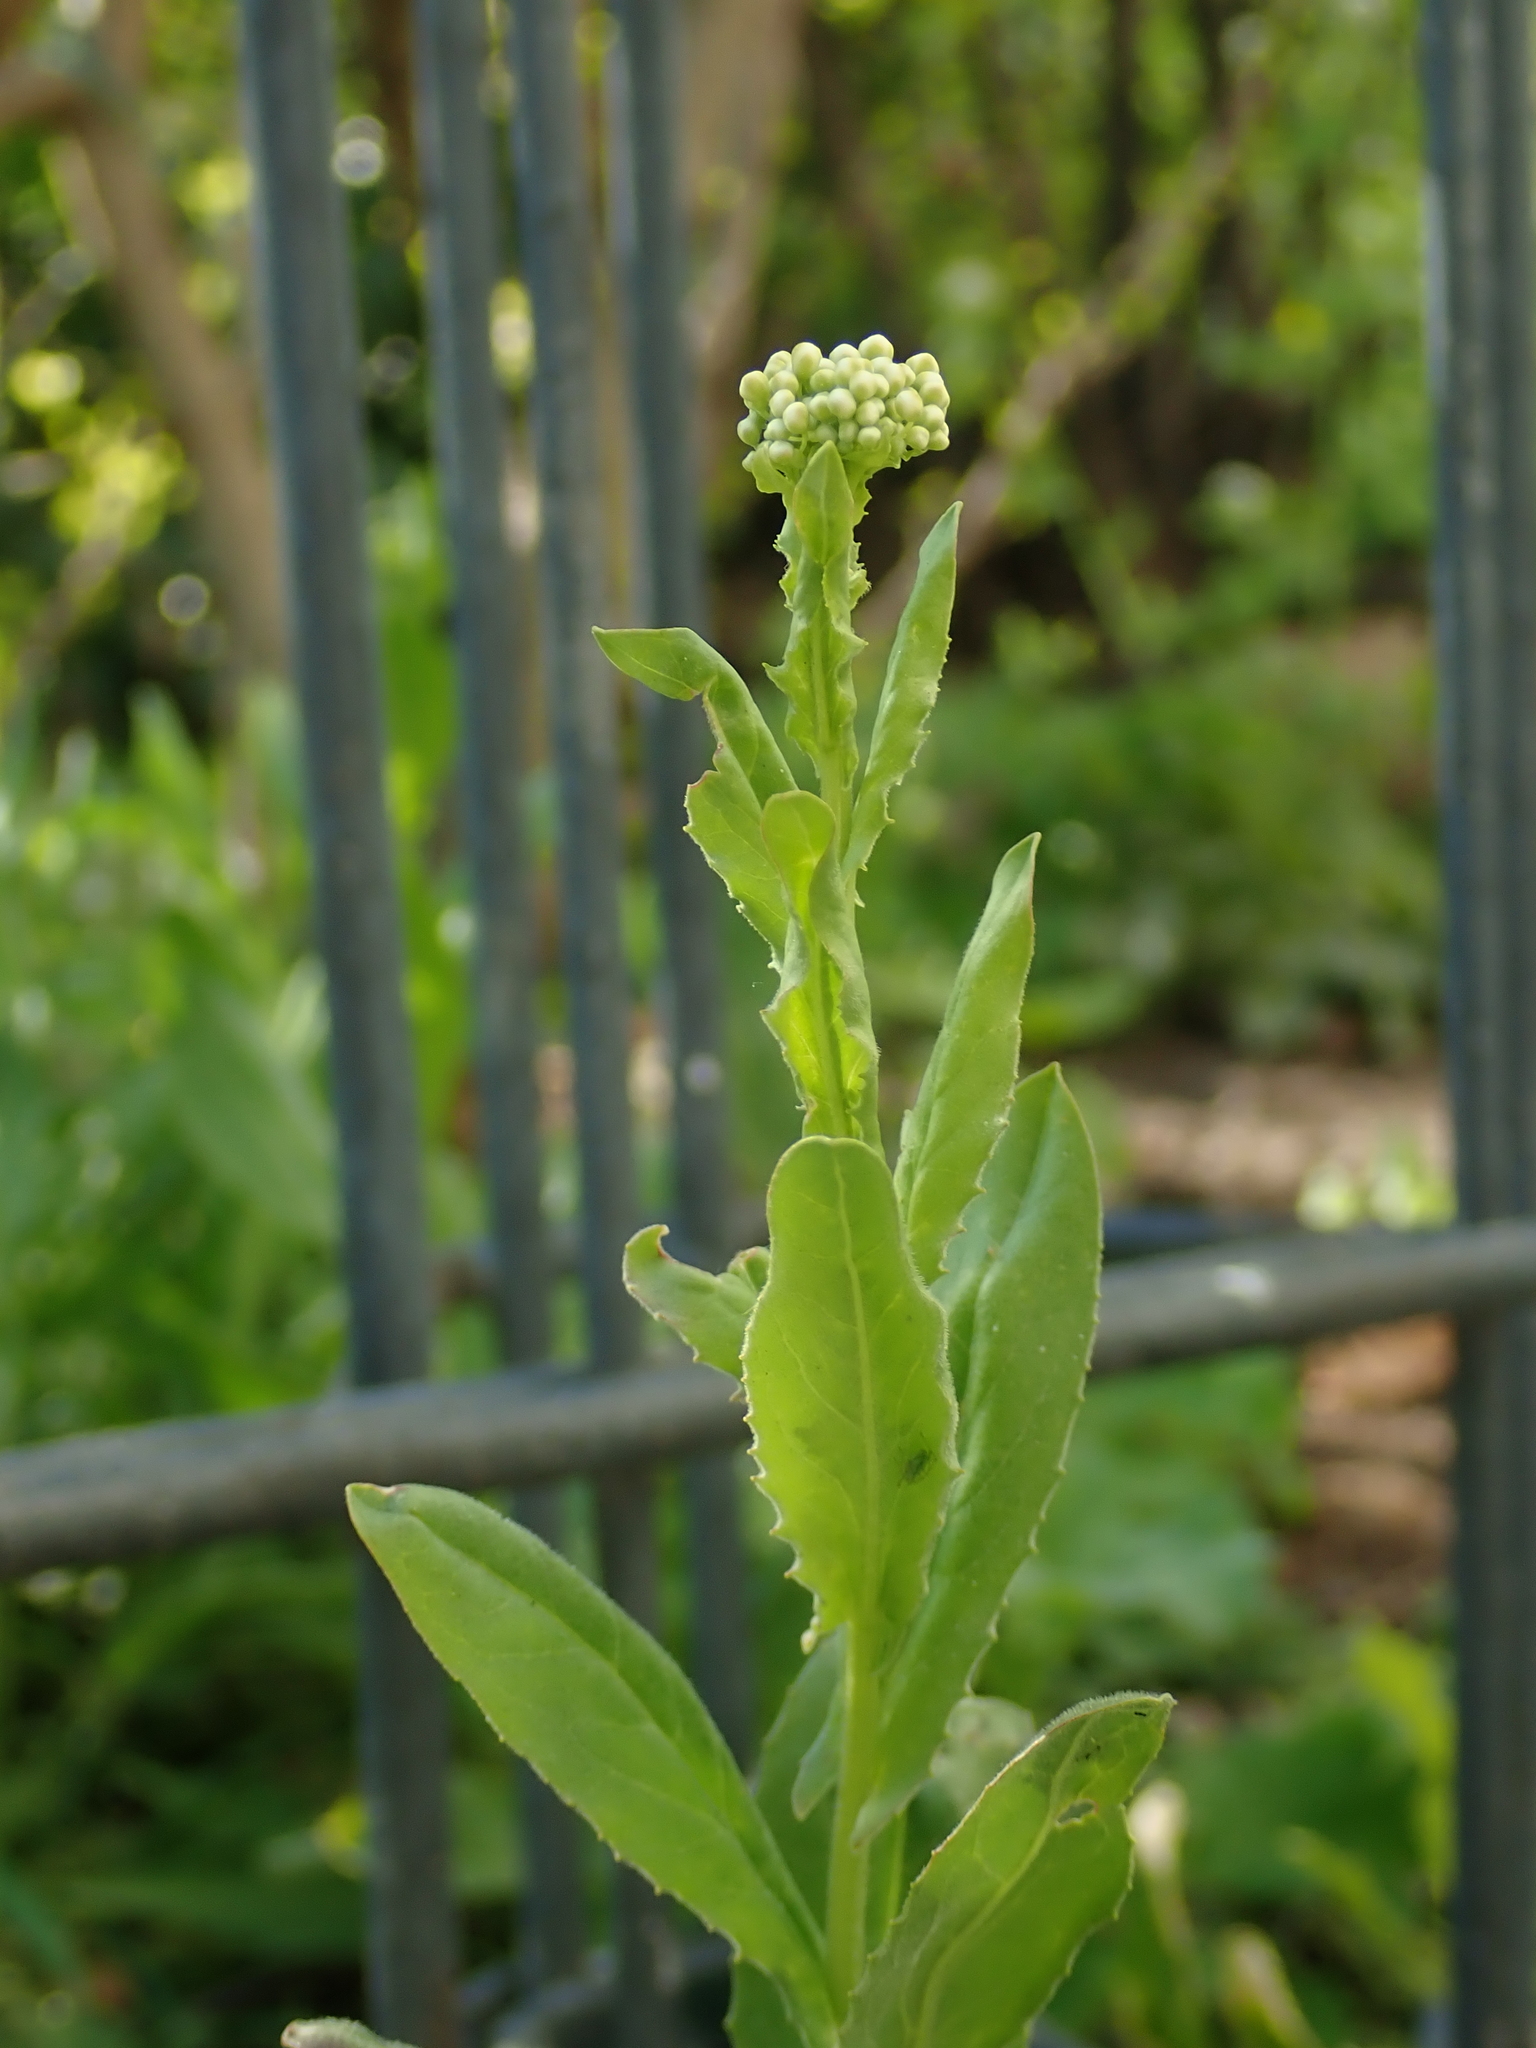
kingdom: Plantae
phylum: Tracheophyta
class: Magnoliopsida
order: Brassicales
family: Brassicaceae
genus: Lepidium
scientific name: Lepidium draba
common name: Hoary cress
